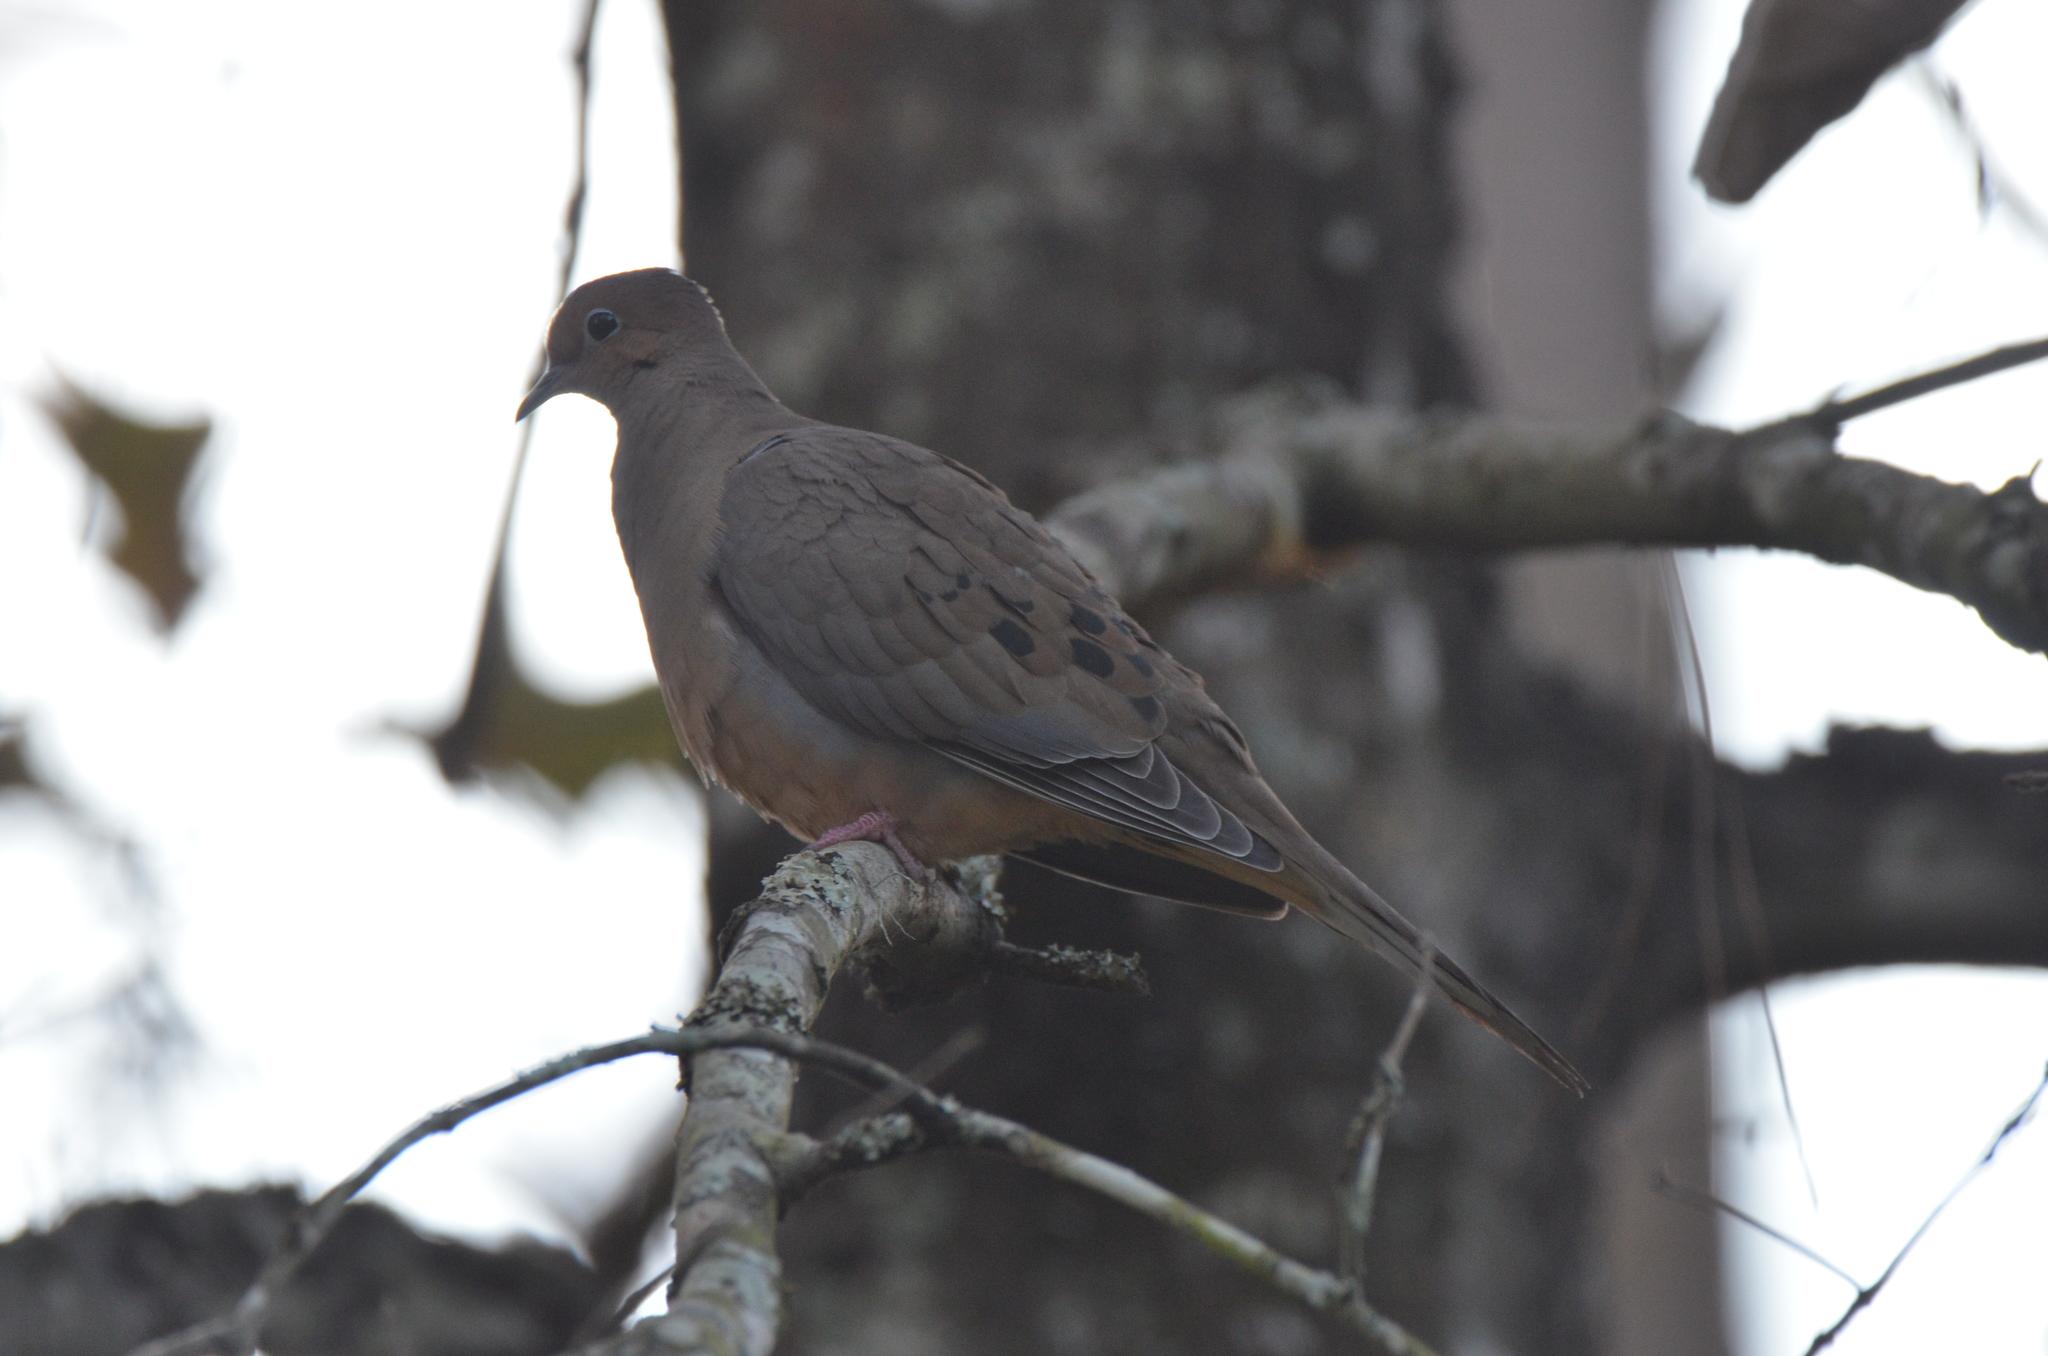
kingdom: Animalia
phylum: Chordata
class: Aves
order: Columbiformes
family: Columbidae
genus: Zenaida
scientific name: Zenaida macroura
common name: Mourning dove
